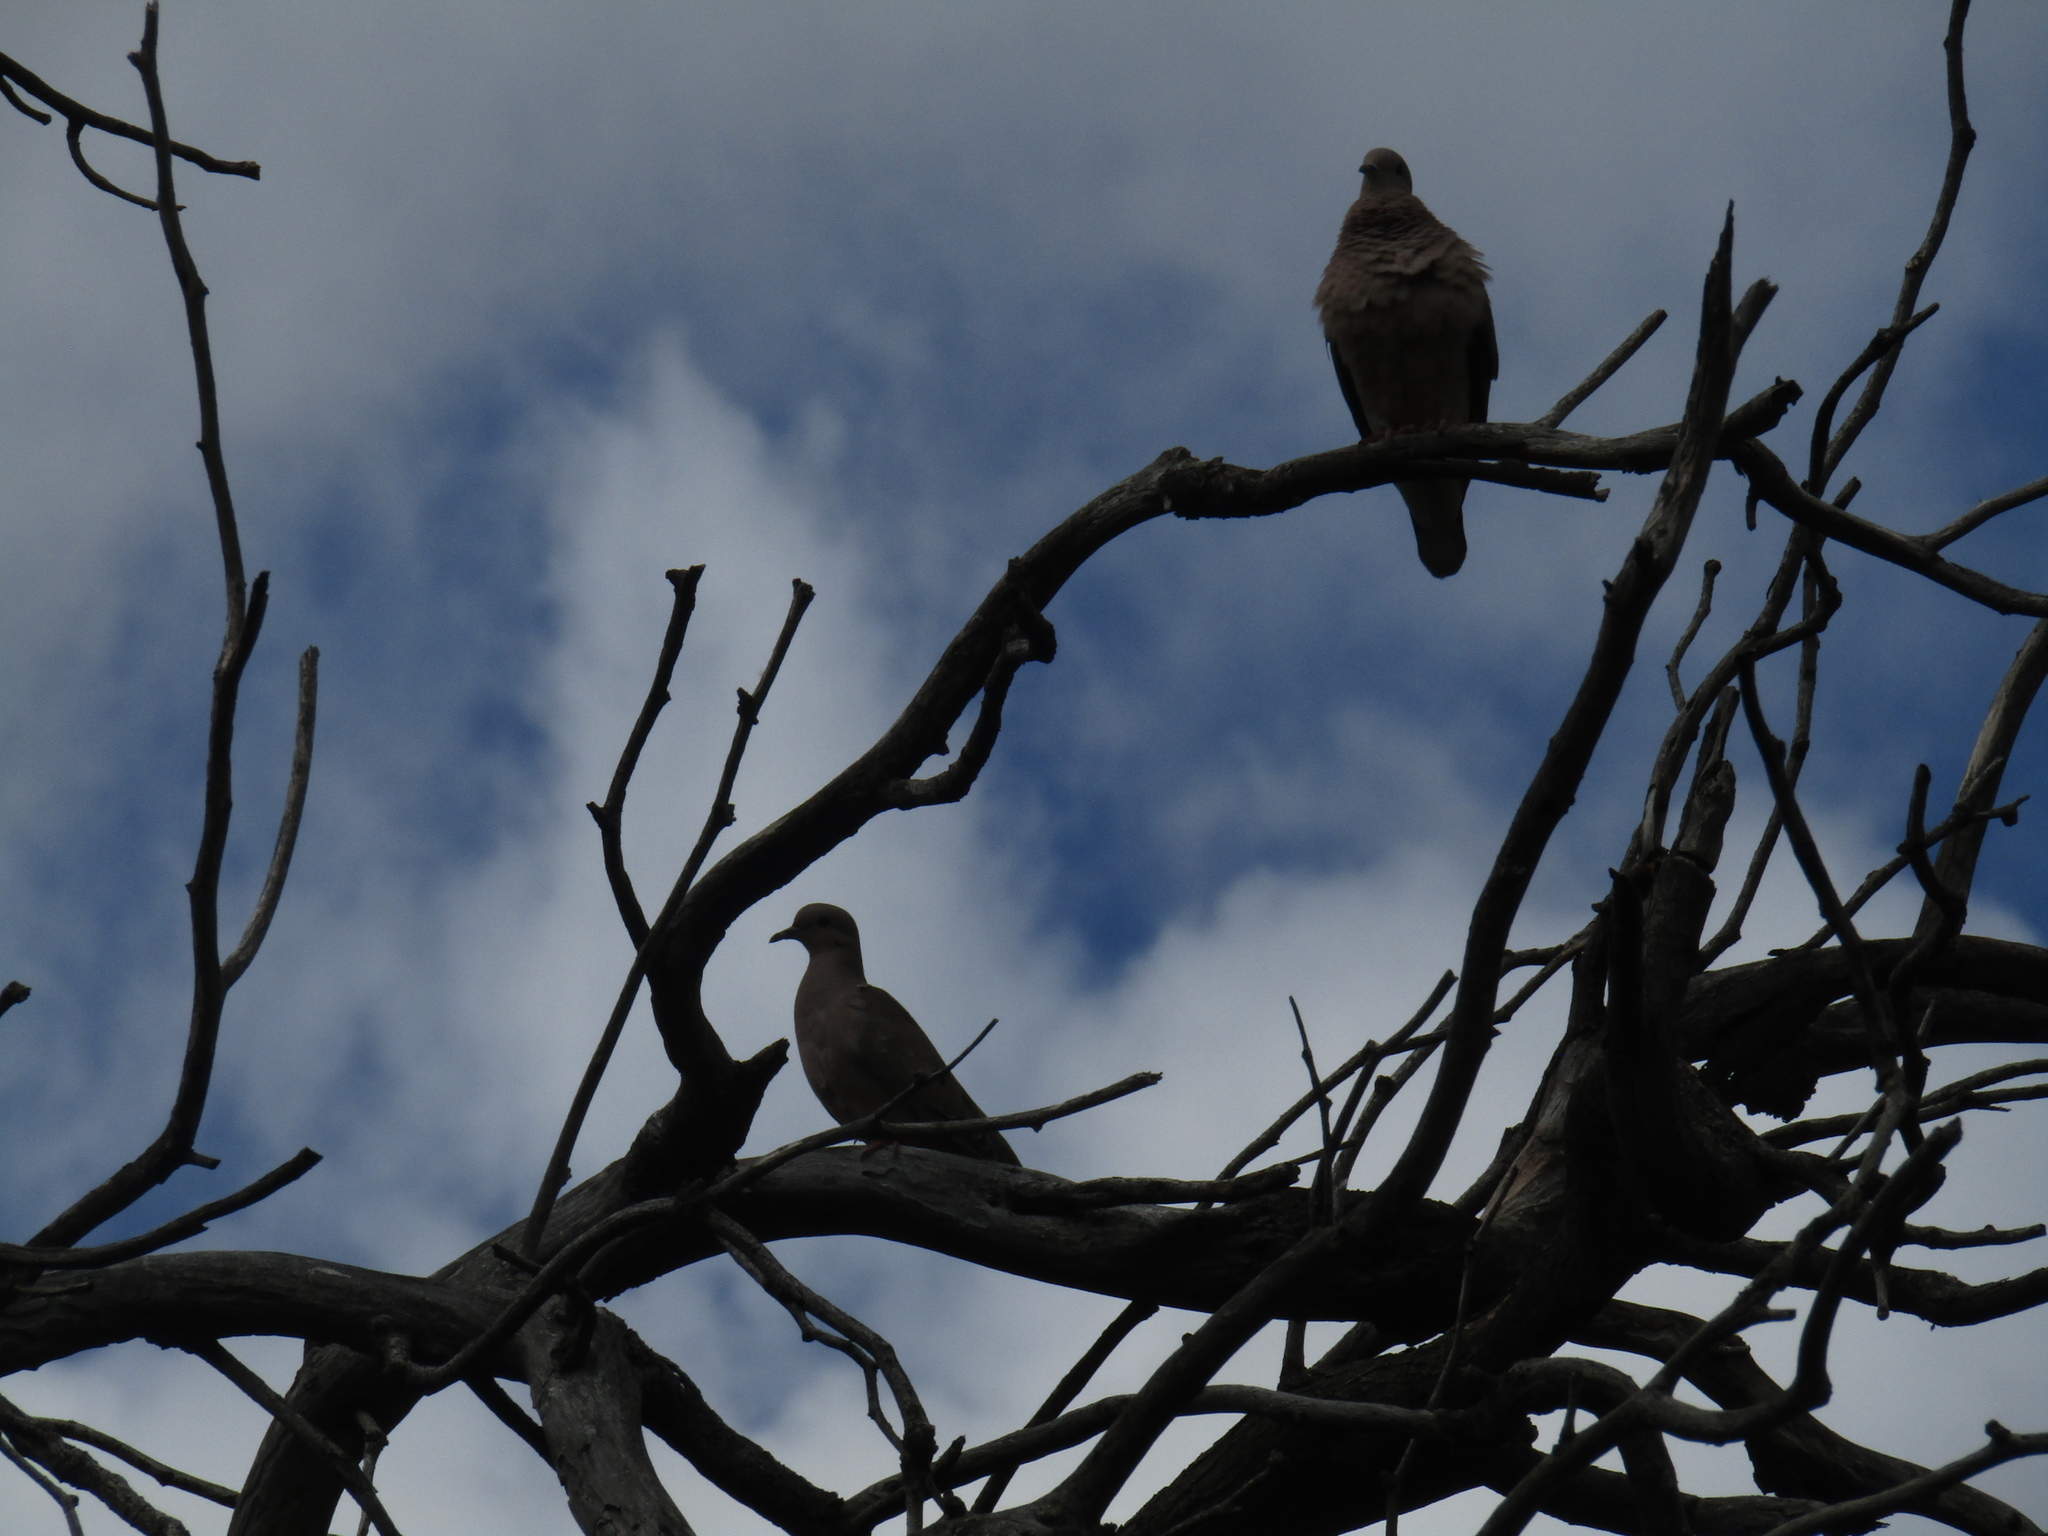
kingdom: Animalia
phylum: Chordata
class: Aves
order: Columbiformes
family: Columbidae
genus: Zenaida
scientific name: Zenaida auriculata
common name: Eared dove
